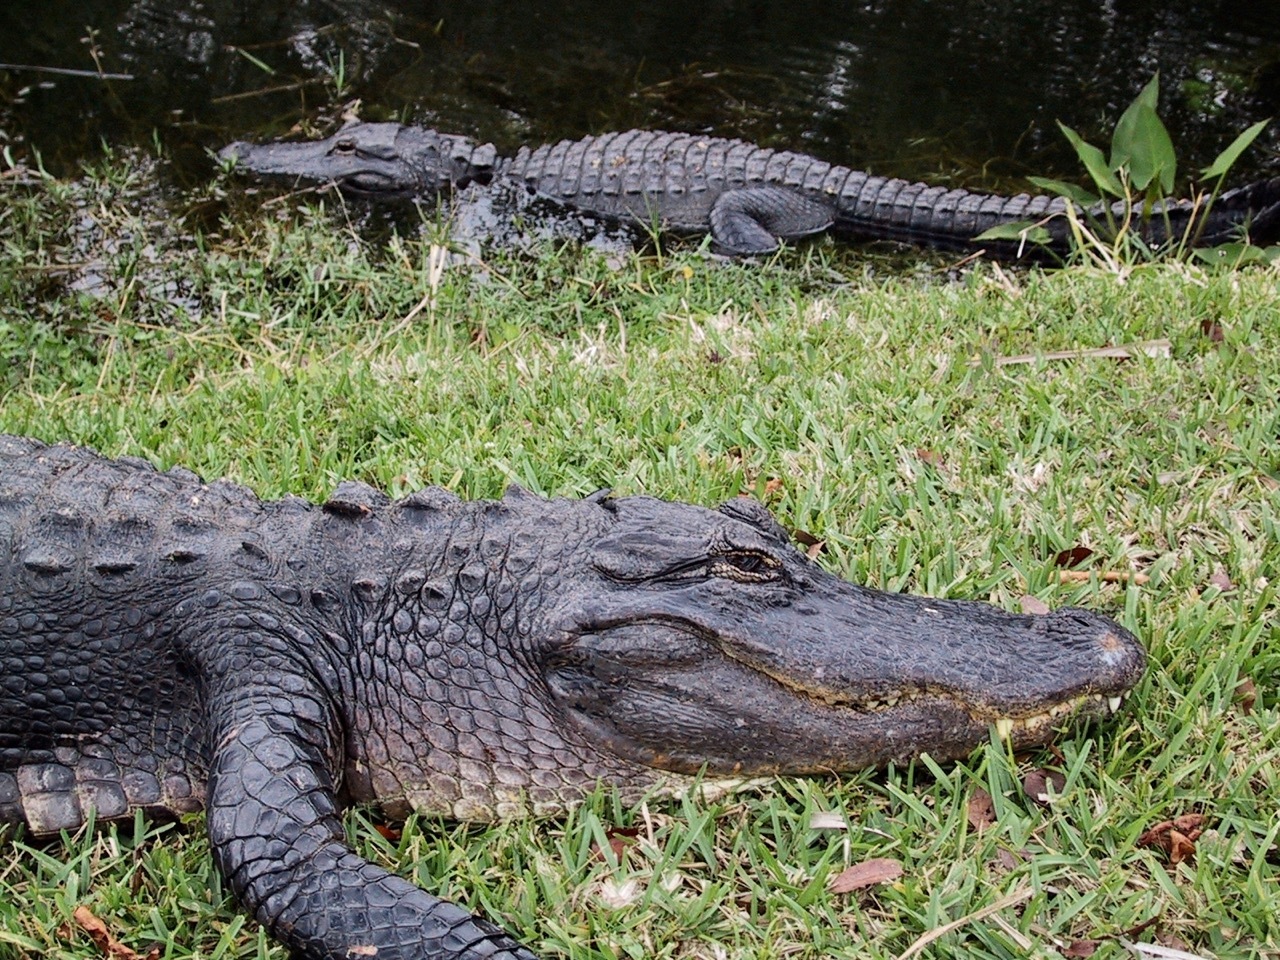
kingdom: Animalia
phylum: Chordata
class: Crocodylia
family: Alligatoridae
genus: Alligator
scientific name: Alligator mississippiensis
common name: American alligator
